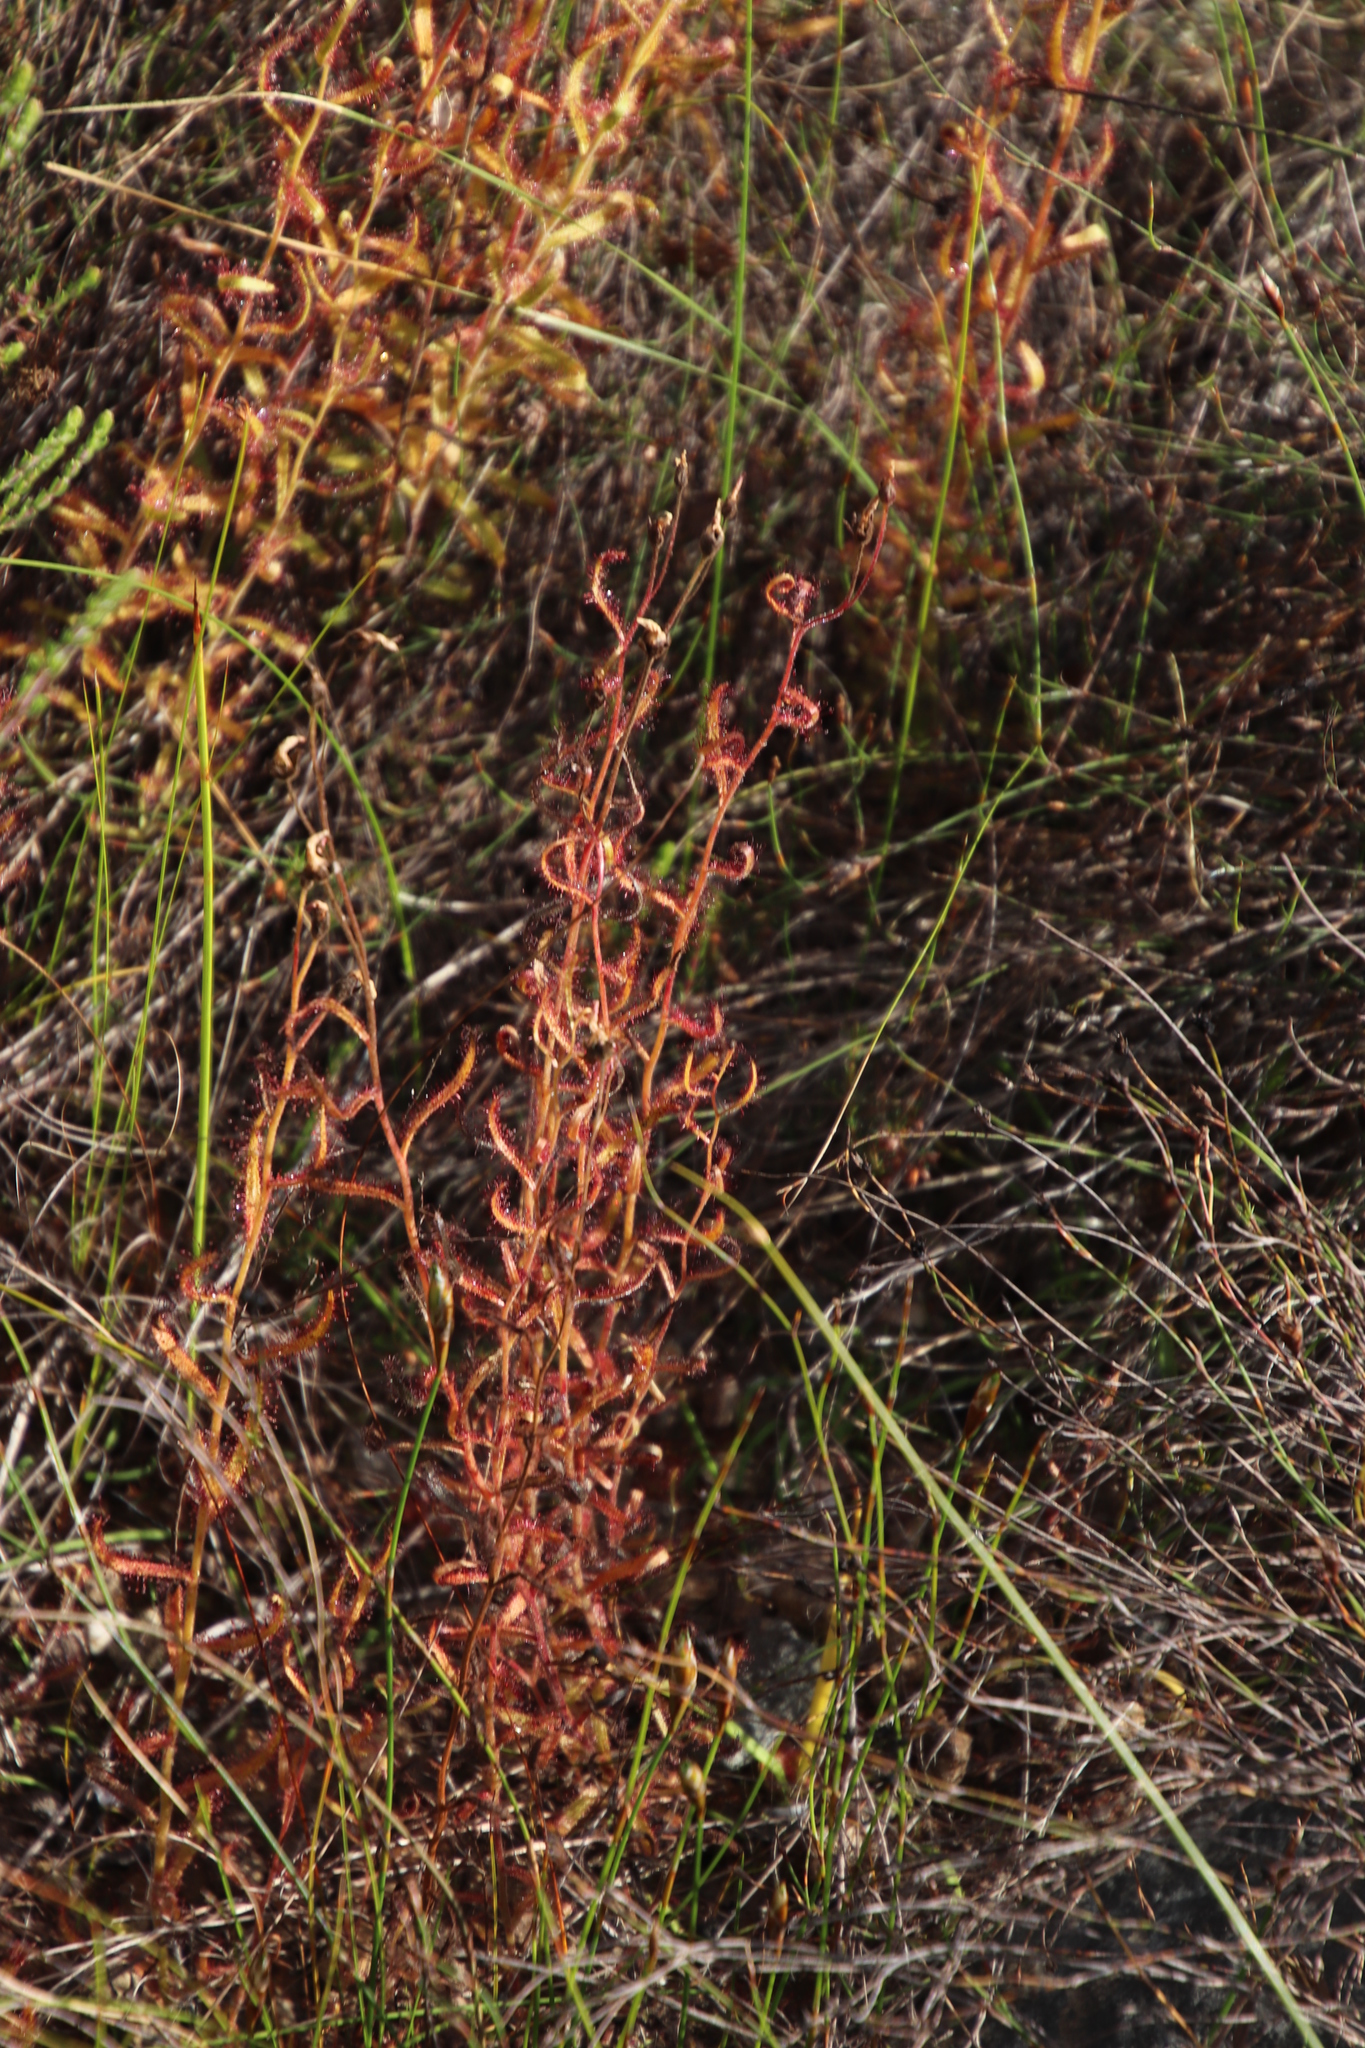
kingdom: Plantae
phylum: Tracheophyta
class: Magnoliopsida
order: Caryophyllales
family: Droseraceae
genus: Drosera
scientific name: Drosera cistiflora
